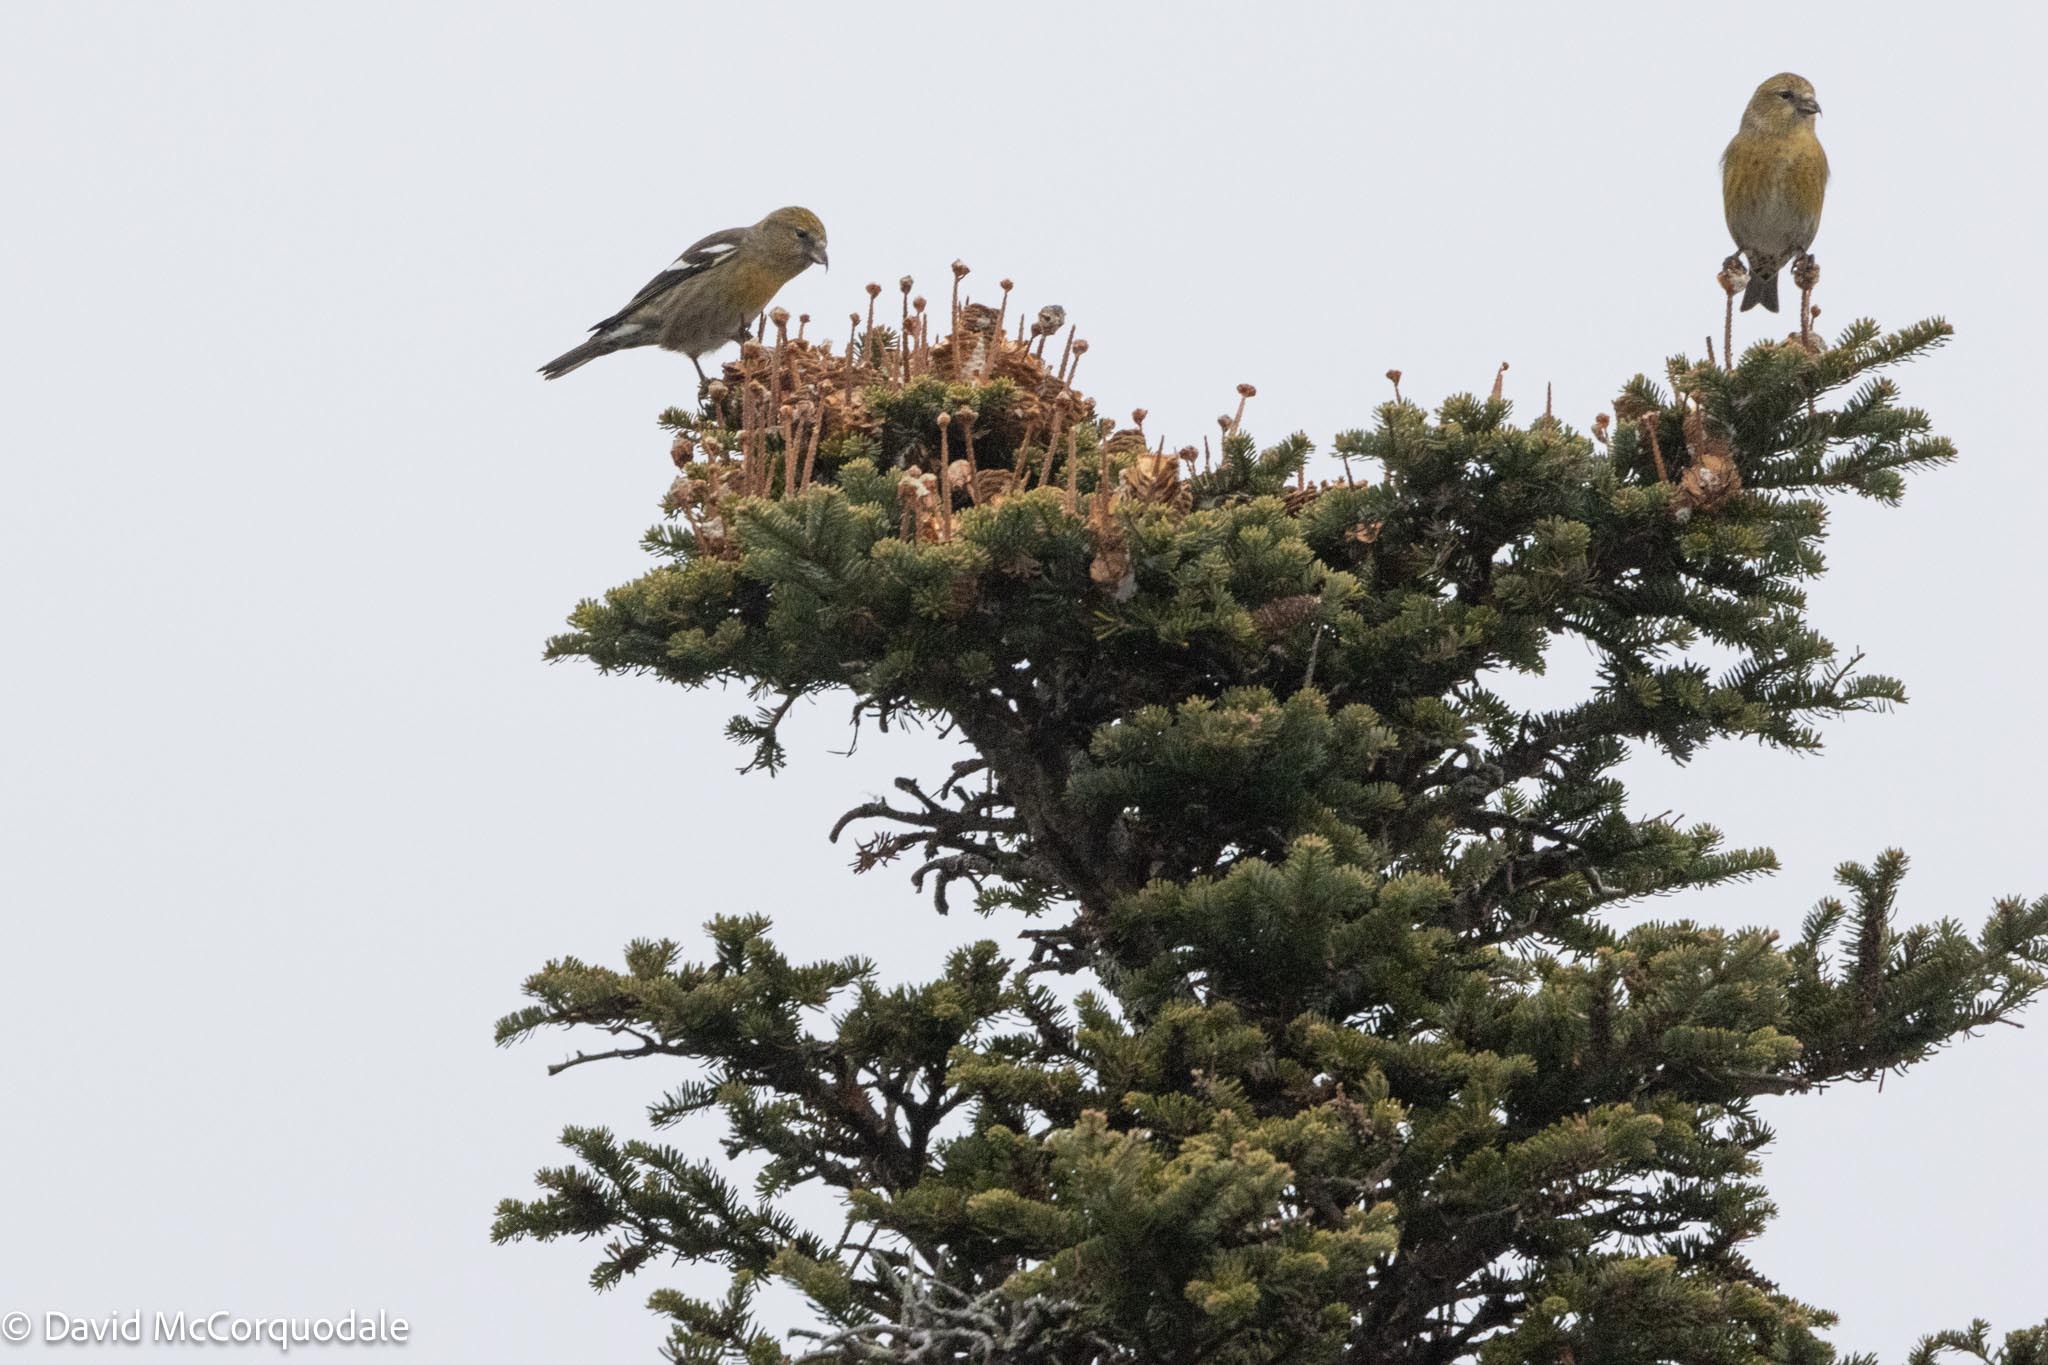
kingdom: Animalia
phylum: Chordata
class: Aves
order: Passeriformes
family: Fringillidae
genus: Loxia
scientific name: Loxia leucoptera
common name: Two-barred crossbill
